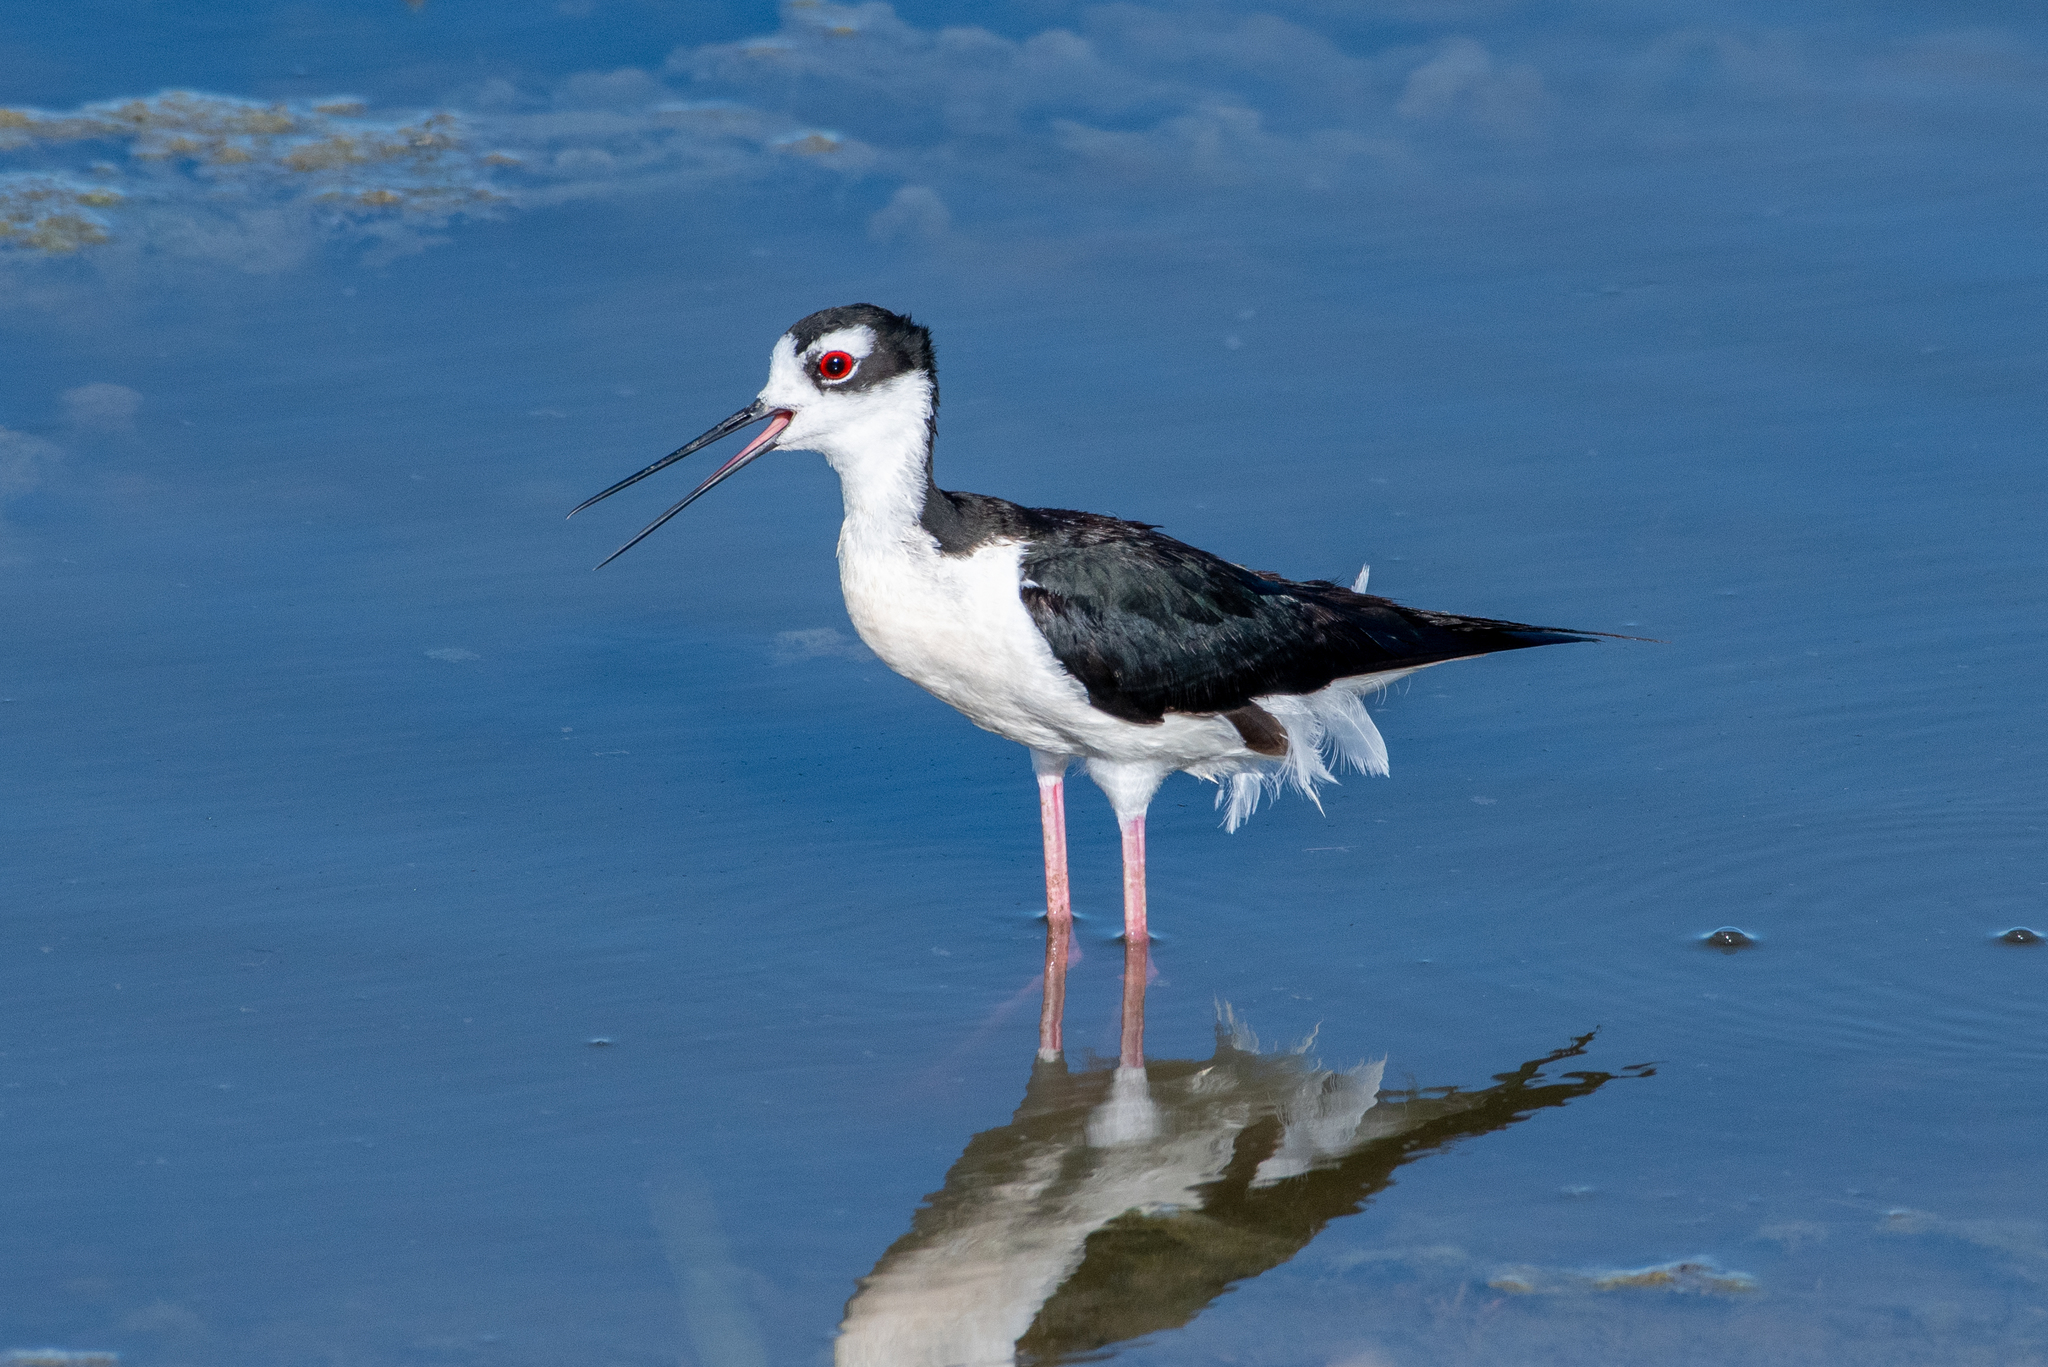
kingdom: Animalia
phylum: Chordata
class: Aves
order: Charadriiformes
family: Recurvirostridae
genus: Himantopus
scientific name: Himantopus mexicanus
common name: Black-necked stilt
